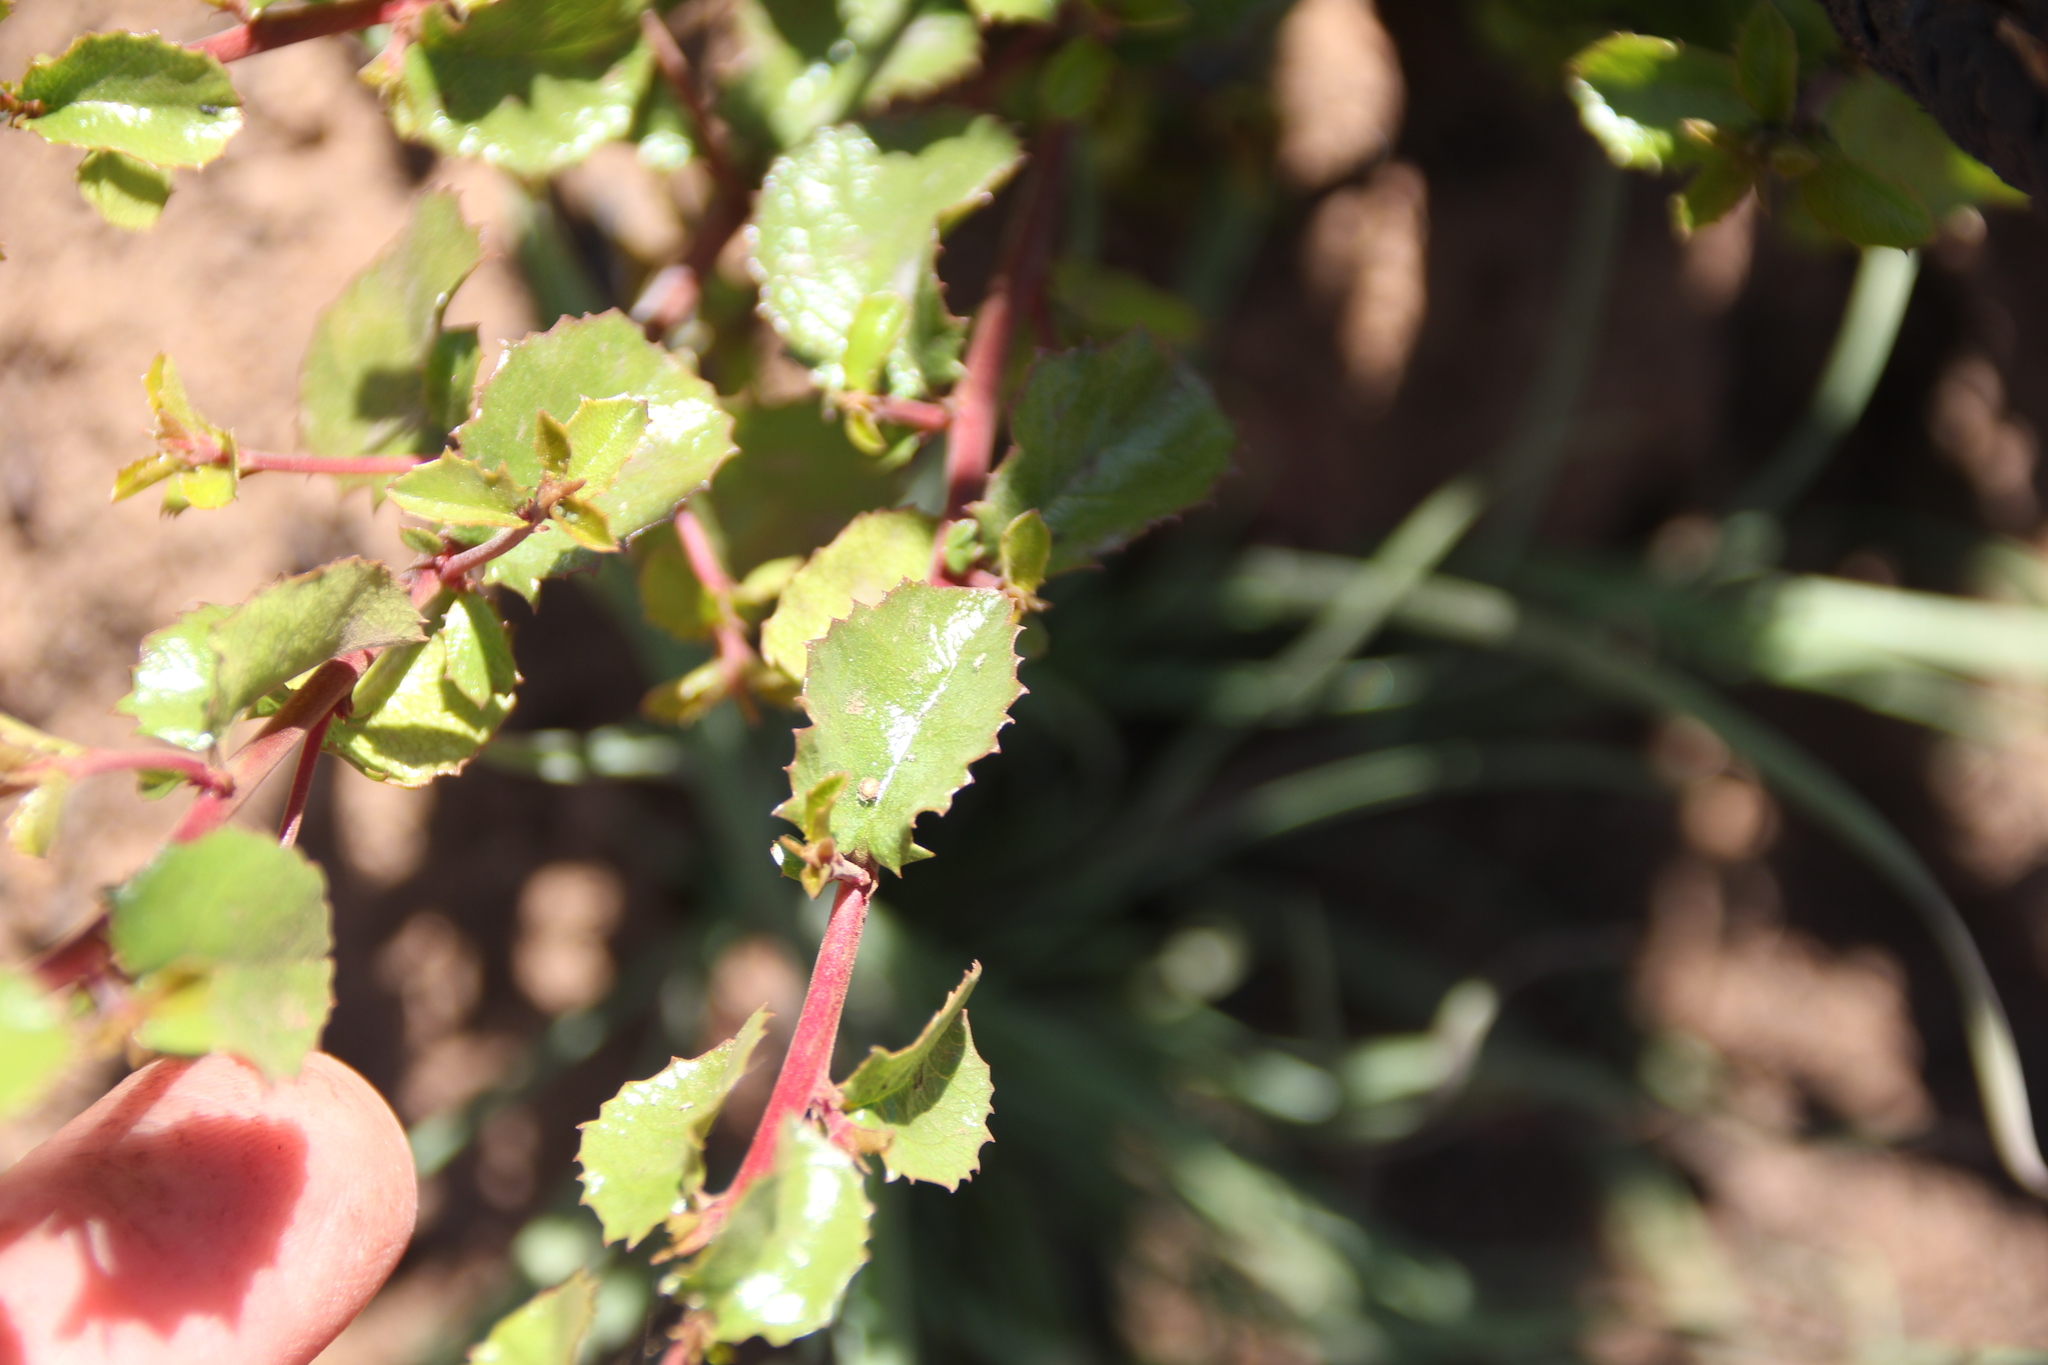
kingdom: Plantae
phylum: Tracheophyta
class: Magnoliopsida
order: Rosales
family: Rosaceae
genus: Prunus
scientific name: Prunus ilicifolia
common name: Hollyleaf cherry
